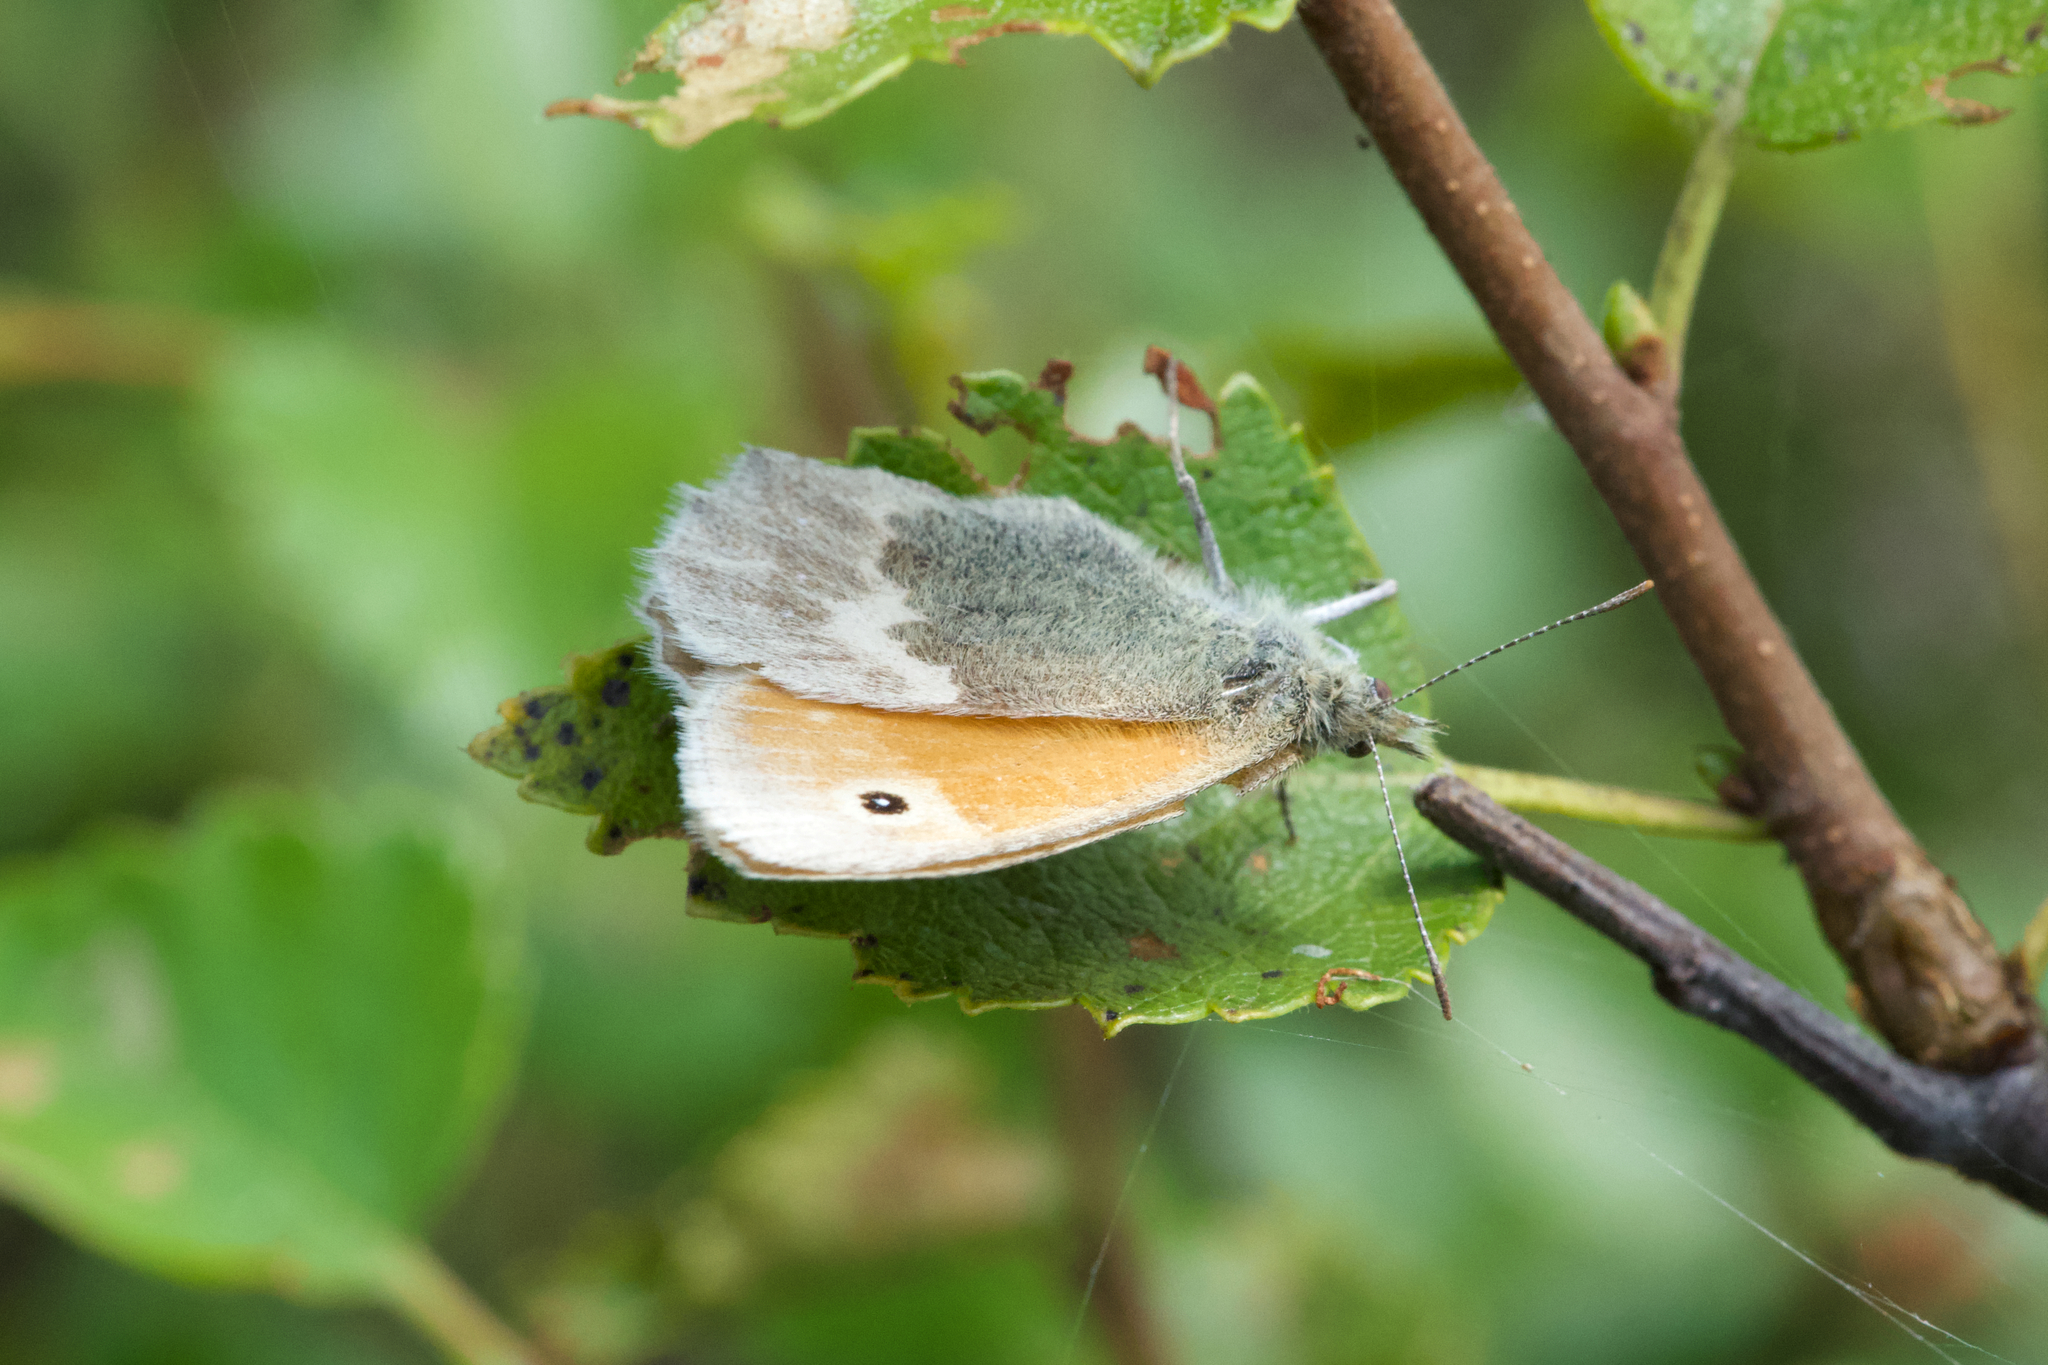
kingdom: Animalia
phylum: Arthropoda
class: Insecta
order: Lepidoptera
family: Nymphalidae
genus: Coenonympha
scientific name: Coenonympha pamphilus
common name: Small heath
